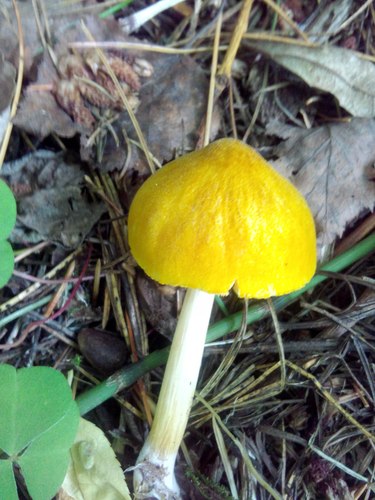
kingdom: Fungi
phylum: Basidiomycota
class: Agaricomycetes
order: Agaricales
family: Pluteaceae
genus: Pluteus
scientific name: Pluteus leoninus
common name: Lion shield
